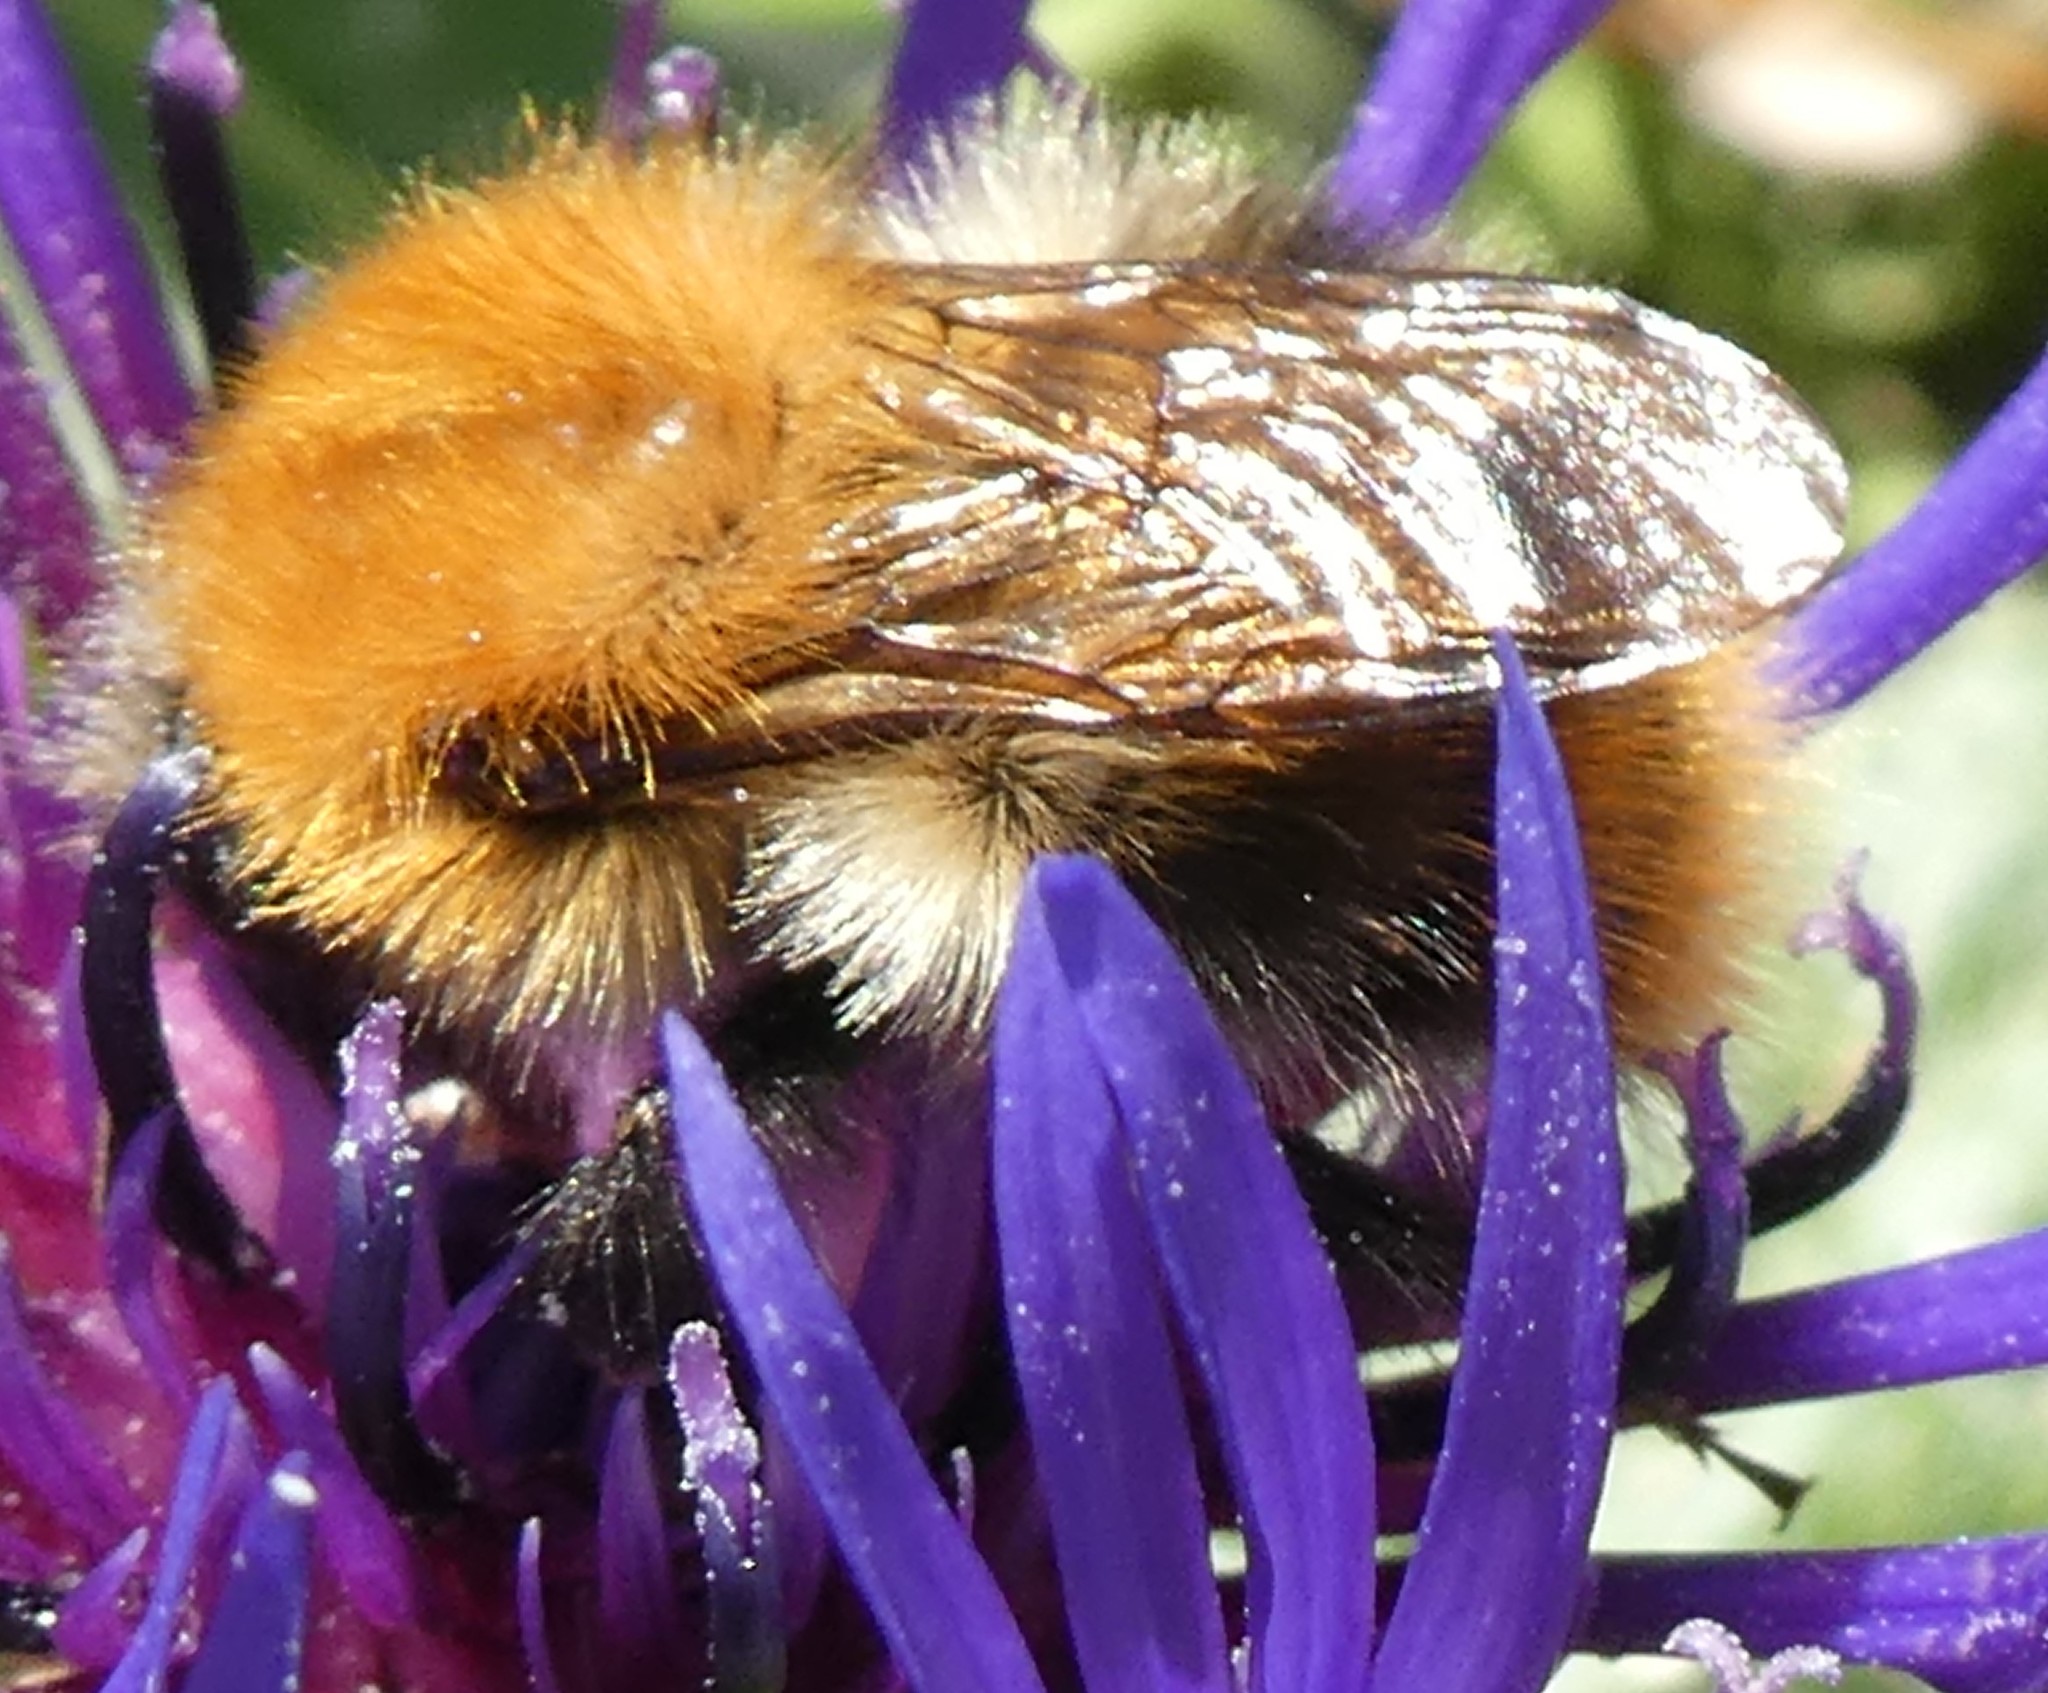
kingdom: Animalia
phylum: Arthropoda
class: Insecta
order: Hymenoptera
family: Apidae
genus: Bombus
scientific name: Bombus pascuorum
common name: Common carder bee
